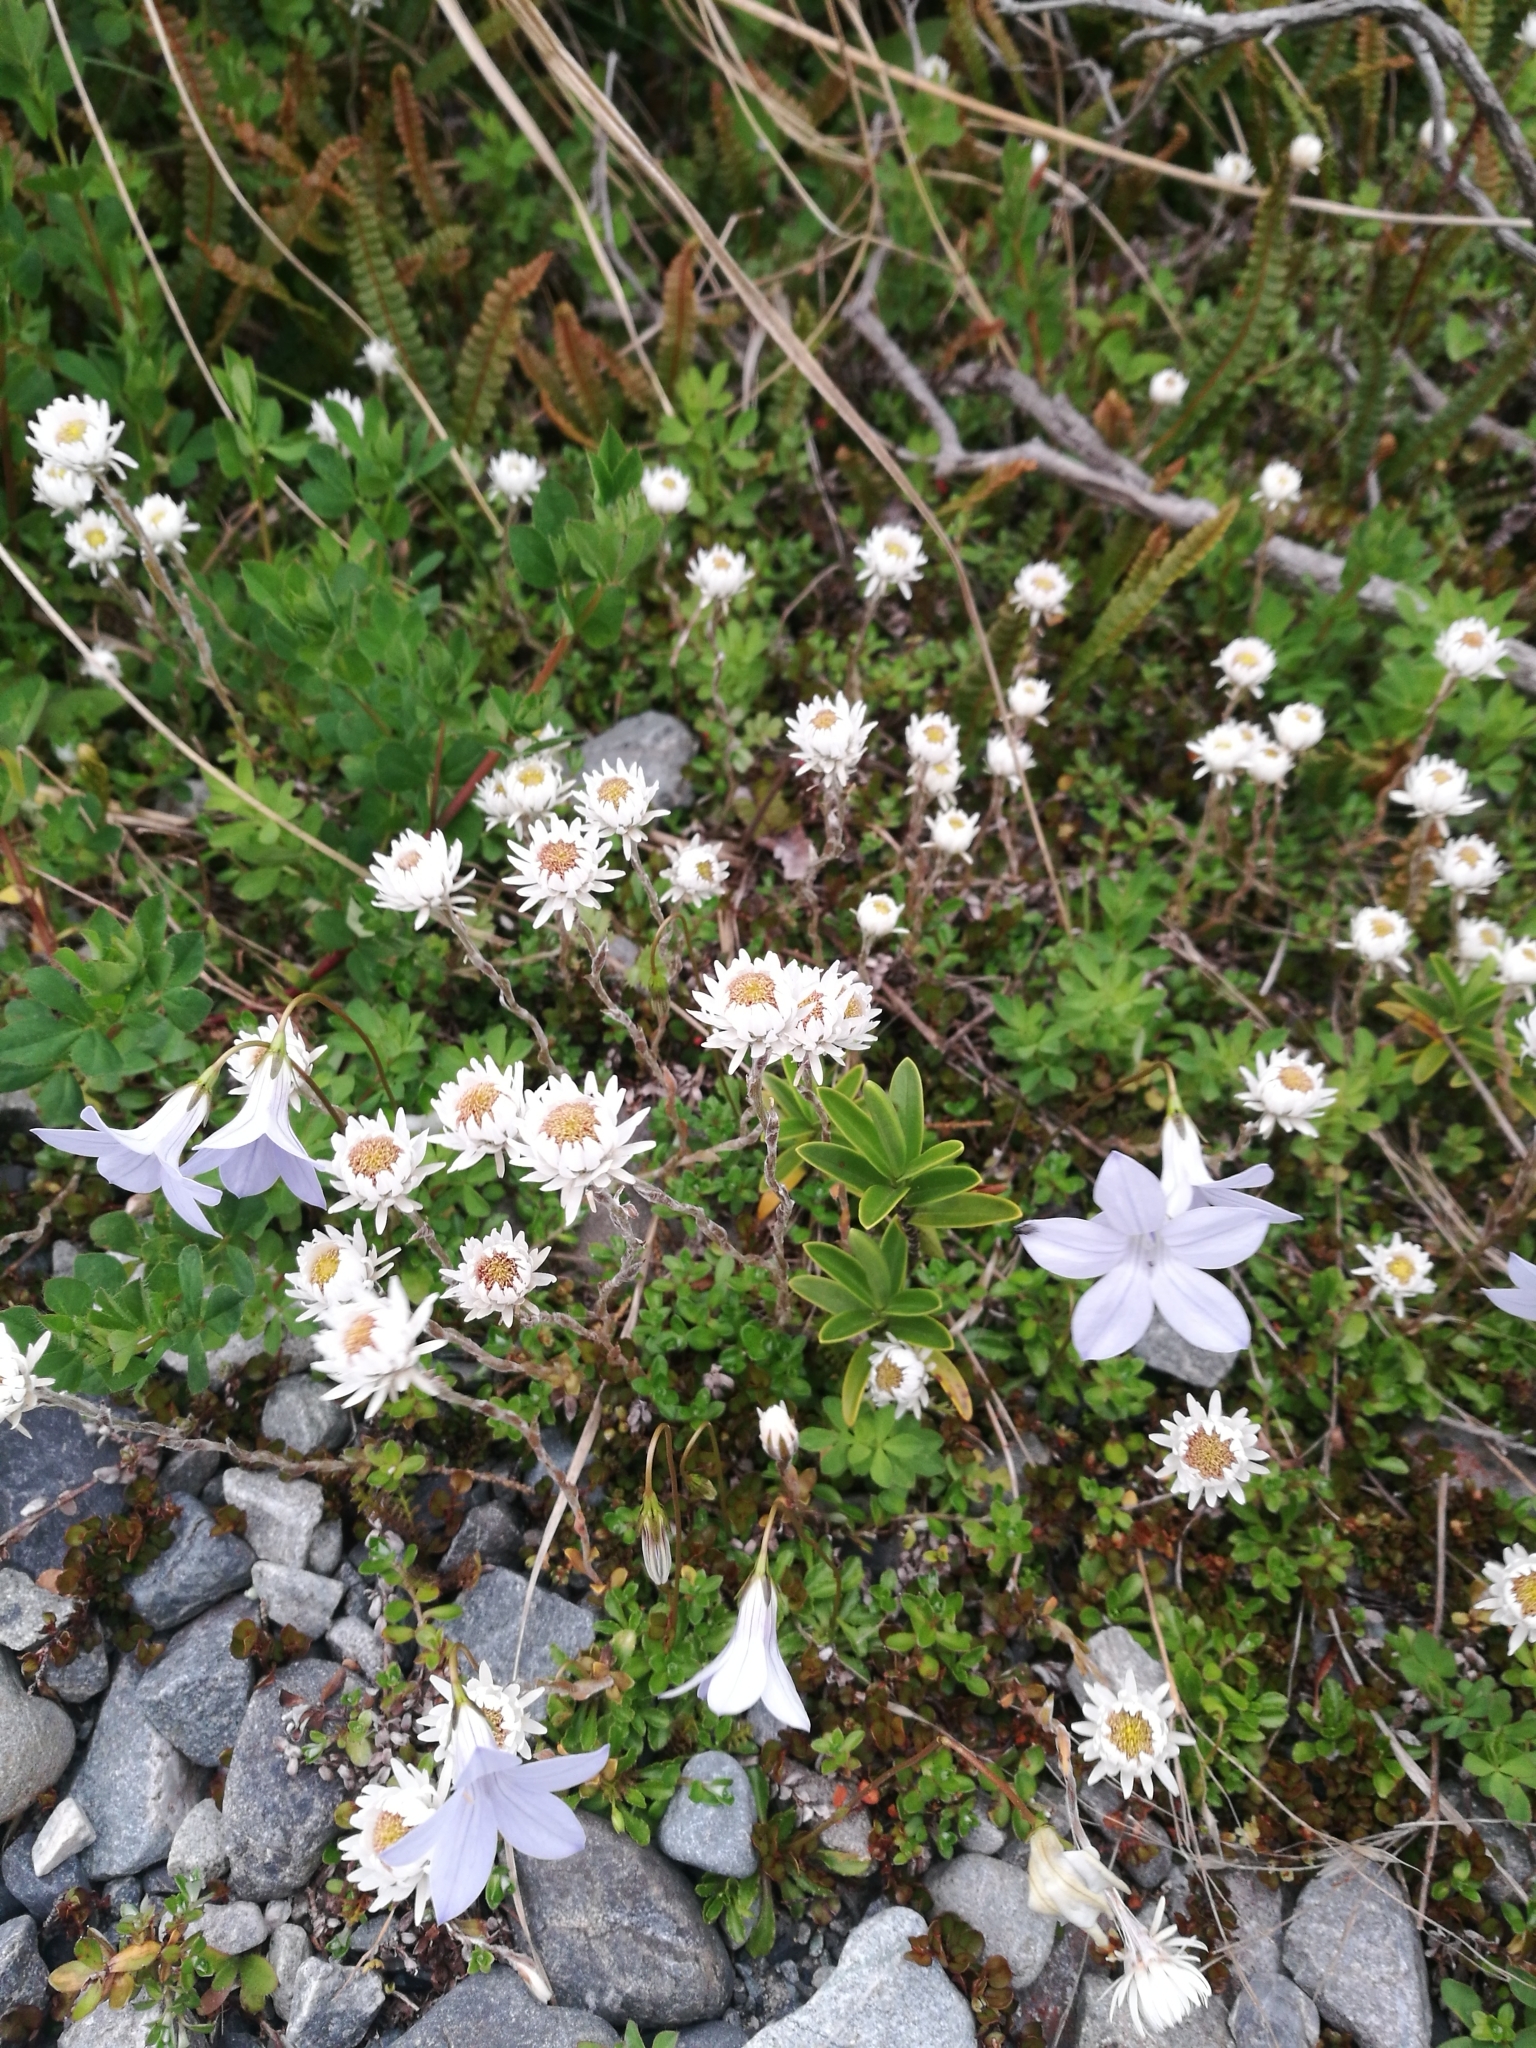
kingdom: Plantae
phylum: Tracheophyta
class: Magnoliopsida
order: Asterales
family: Asteraceae
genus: Anaphalioides
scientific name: Anaphalioides bellidioides
